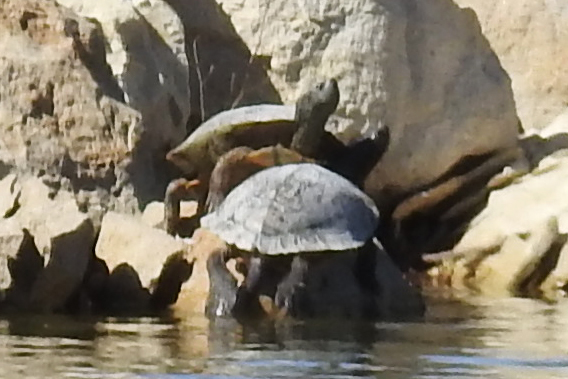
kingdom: Animalia
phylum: Chordata
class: Testudines
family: Emydidae
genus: Trachemys
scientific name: Trachemys scripta
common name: Slider
